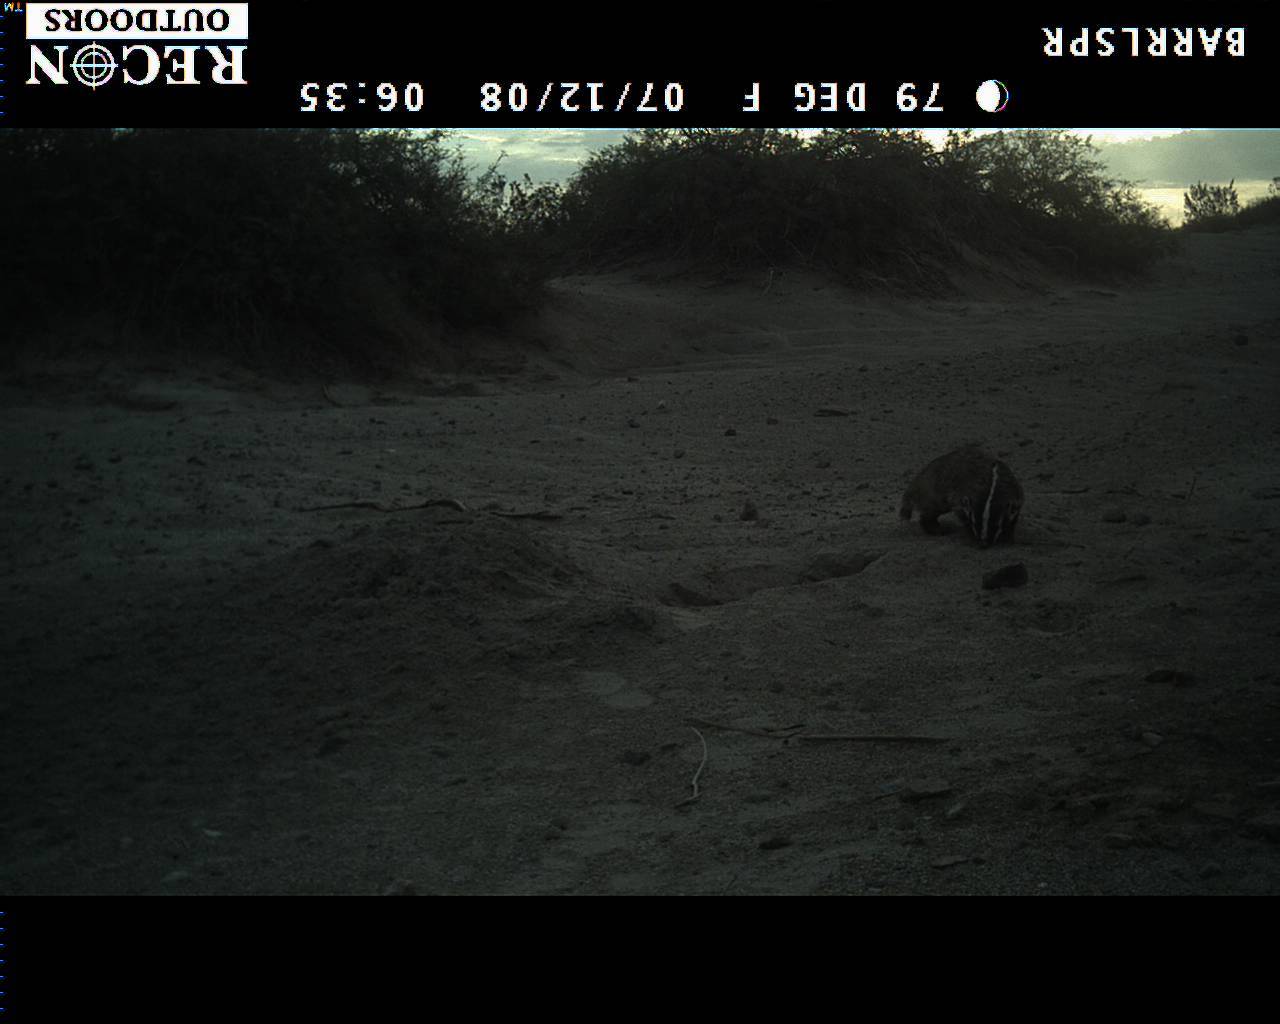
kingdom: Animalia
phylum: Chordata
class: Mammalia
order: Carnivora
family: Mustelidae
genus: Taxidea
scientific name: Taxidea taxus
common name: American badger
